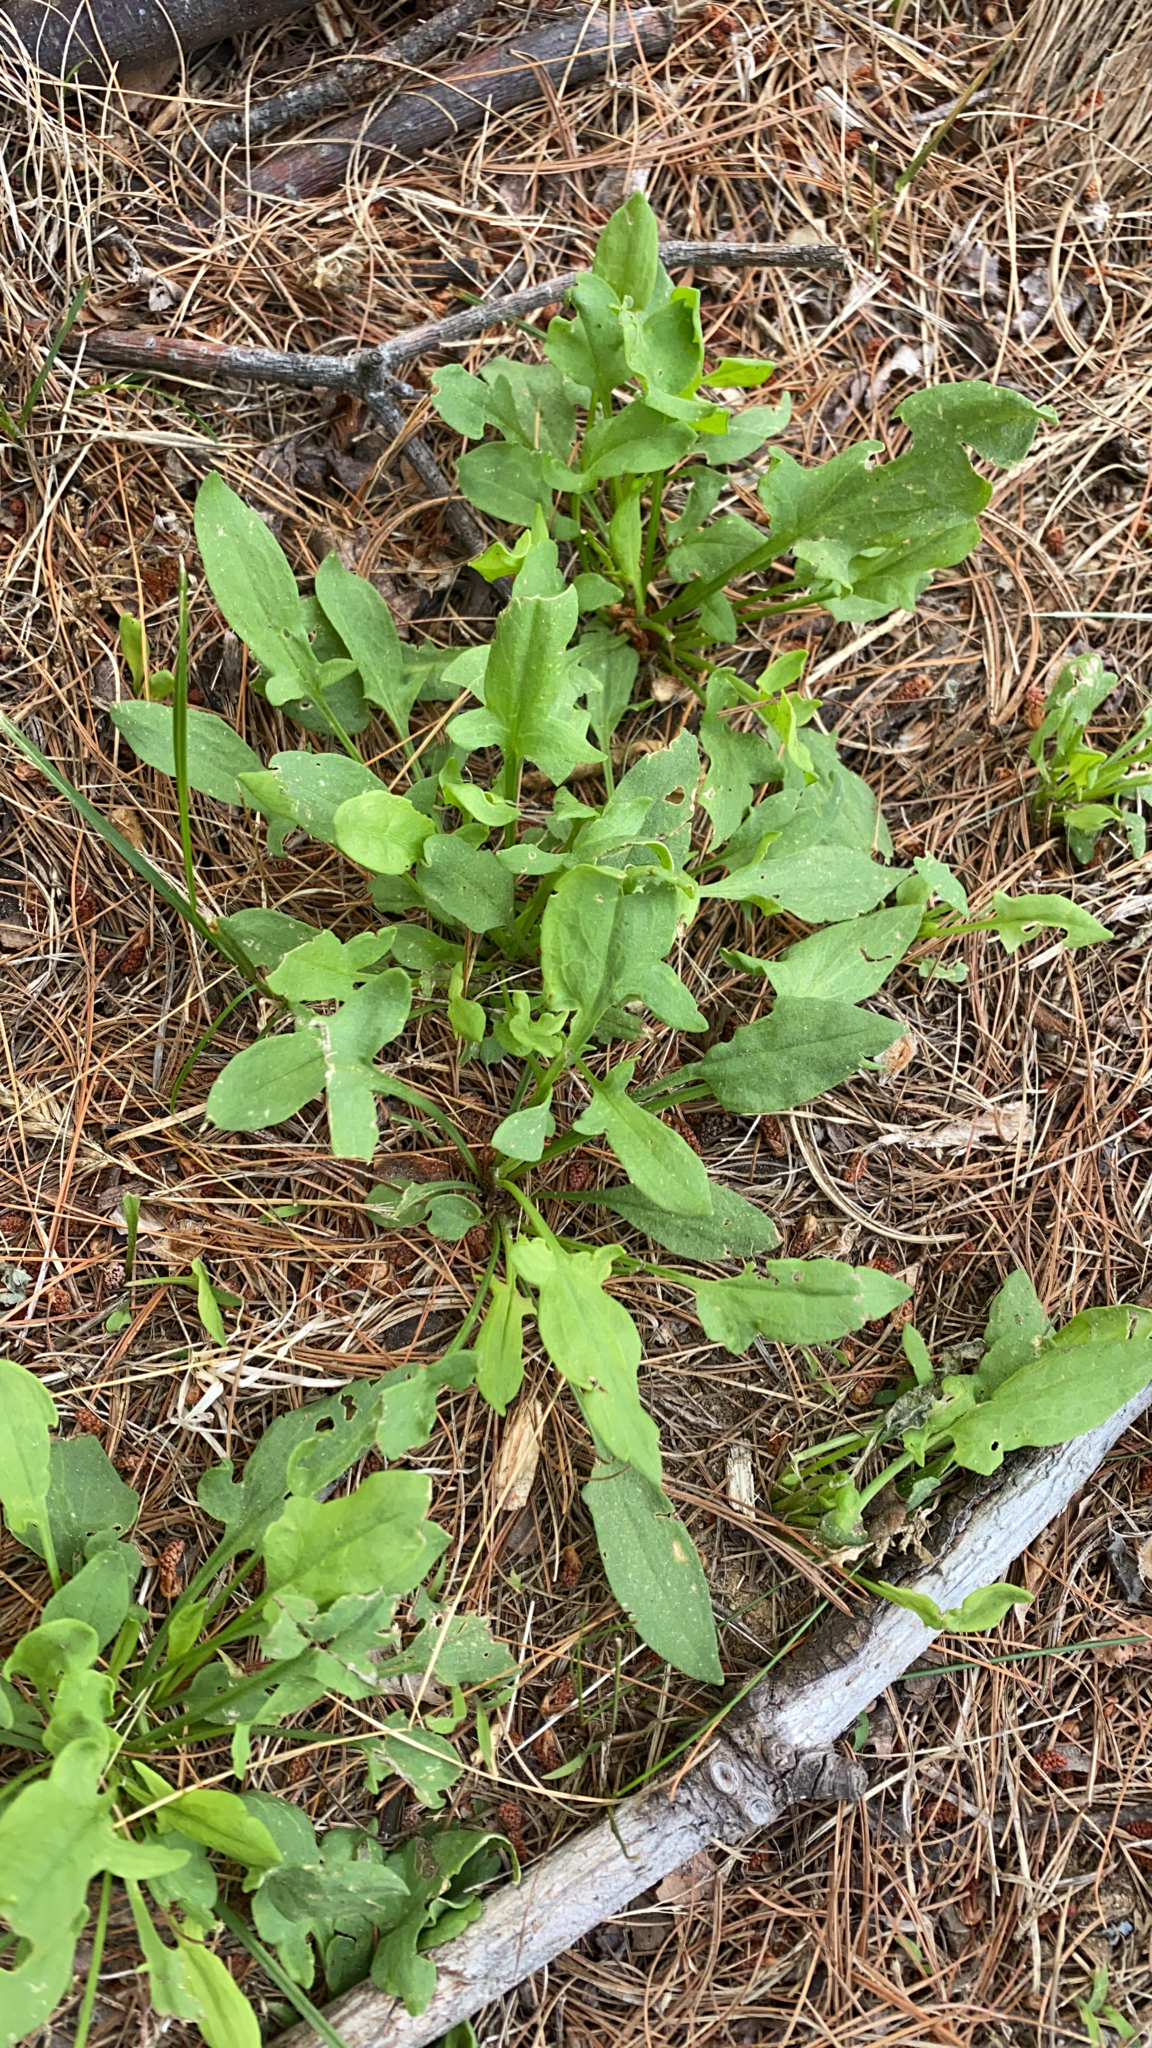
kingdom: Plantae
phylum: Tracheophyta
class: Magnoliopsida
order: Caryophyllales
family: Polygonaceae
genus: Rumex
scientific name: Rumex acetosella
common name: Common sheep sorrel
